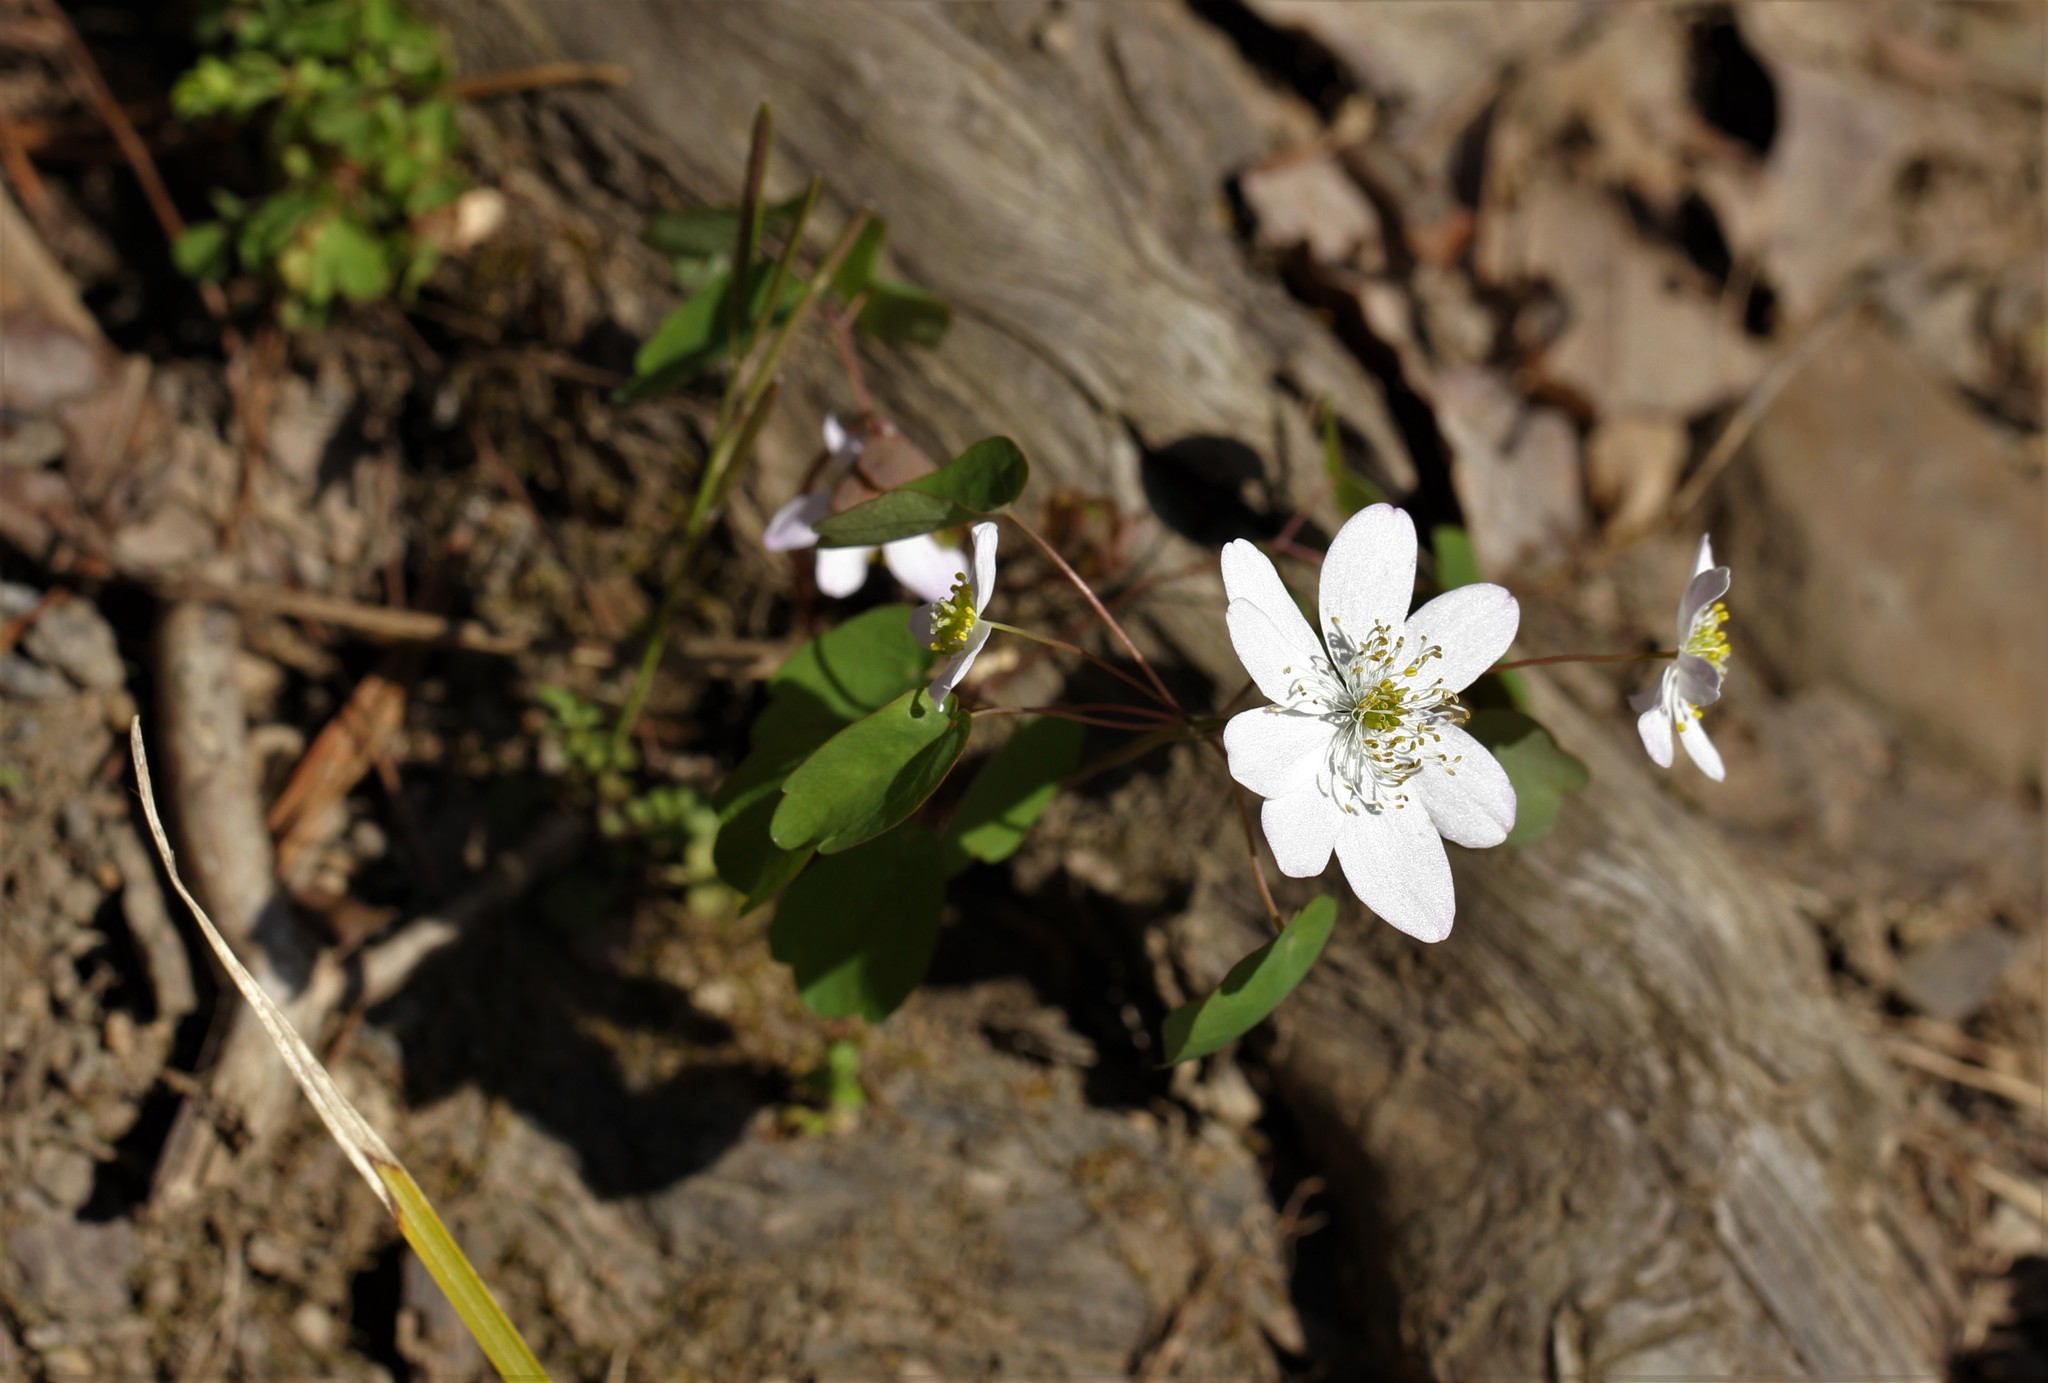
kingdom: Plantae
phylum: Tracheophyta
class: Magnoliopsida
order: Ranunculales
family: Ranunculaceae
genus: Thalictrum
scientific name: Thalictrum thalictroides
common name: Rue-anemone
